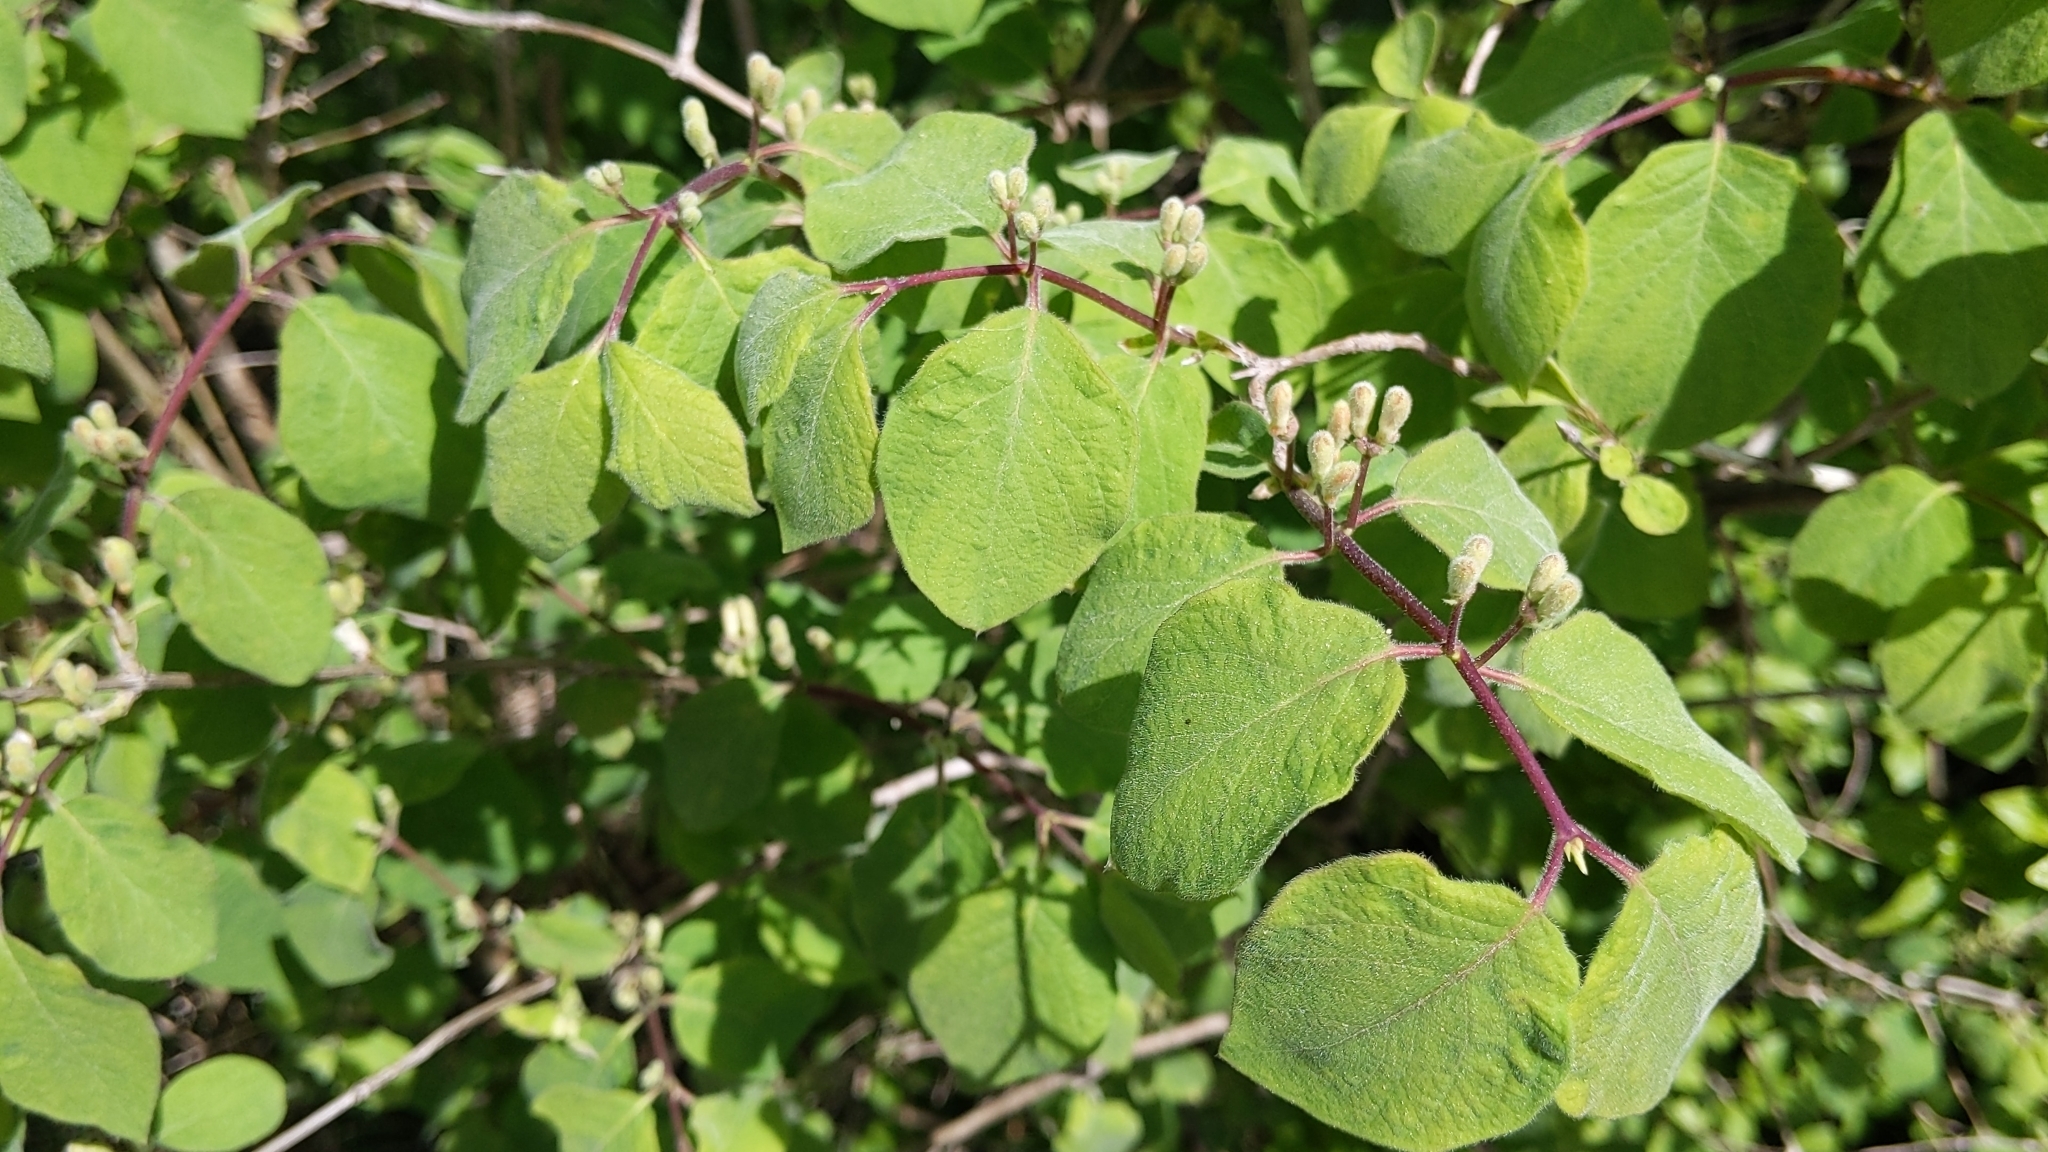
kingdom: Plantae
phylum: Tracheophyta
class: Magnoliopsida
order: Dipsacales
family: Caprifoliaceae
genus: Lonicera
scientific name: Lonicera xylosteum
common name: Fly honeysuckle
